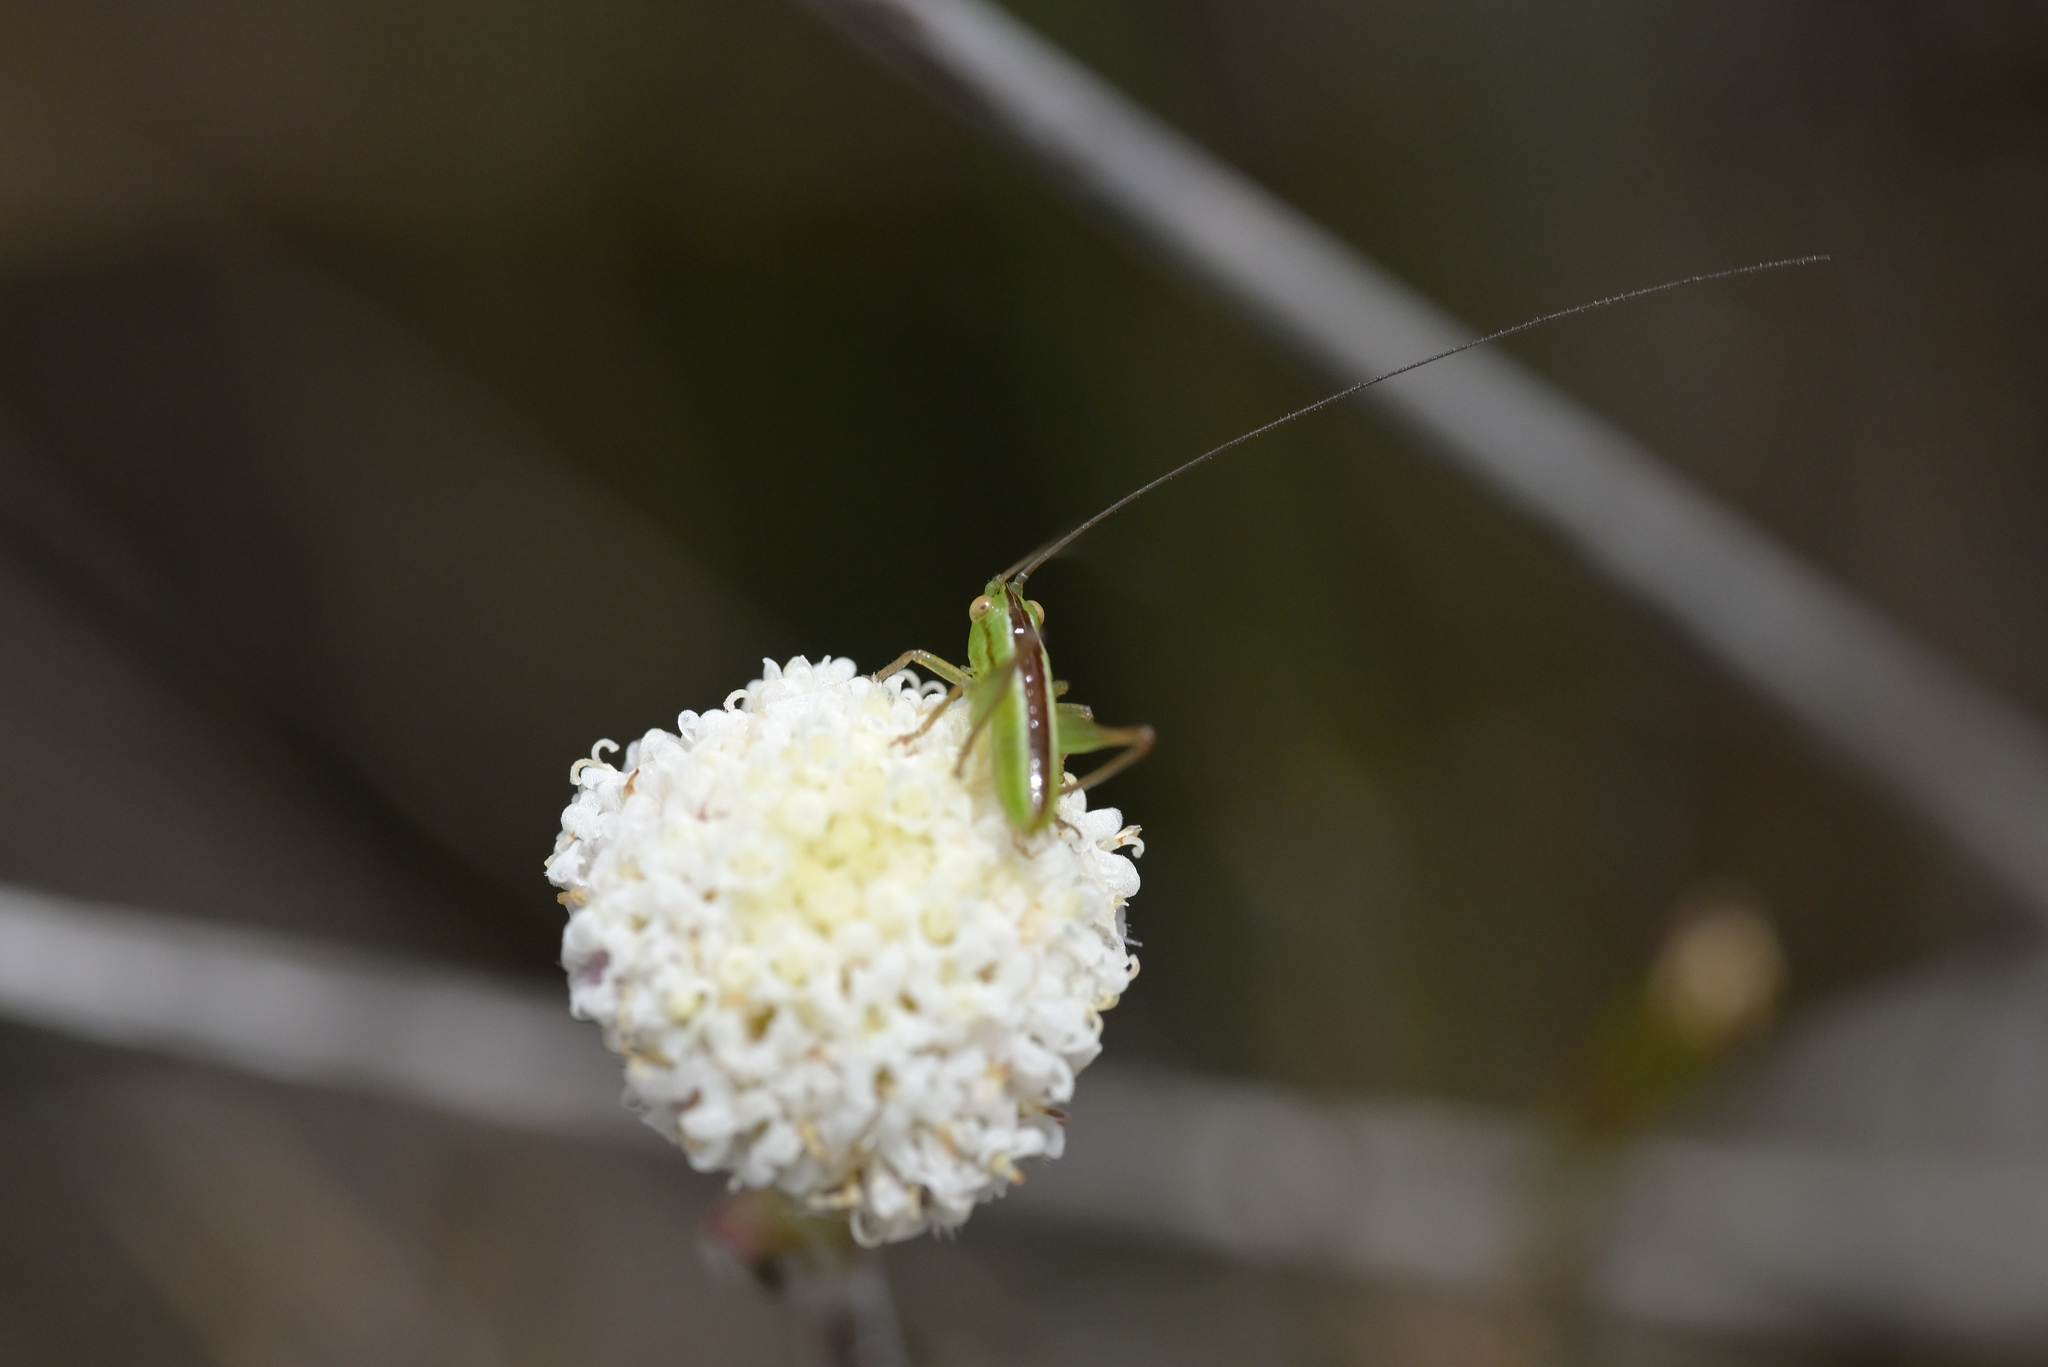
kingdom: Animalia
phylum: Arthropoda
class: Insecta
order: Orthoptera
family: Tettigoniidae
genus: Conocephalus
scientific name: Conocephalus bilineatus
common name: Small meadow katydid
